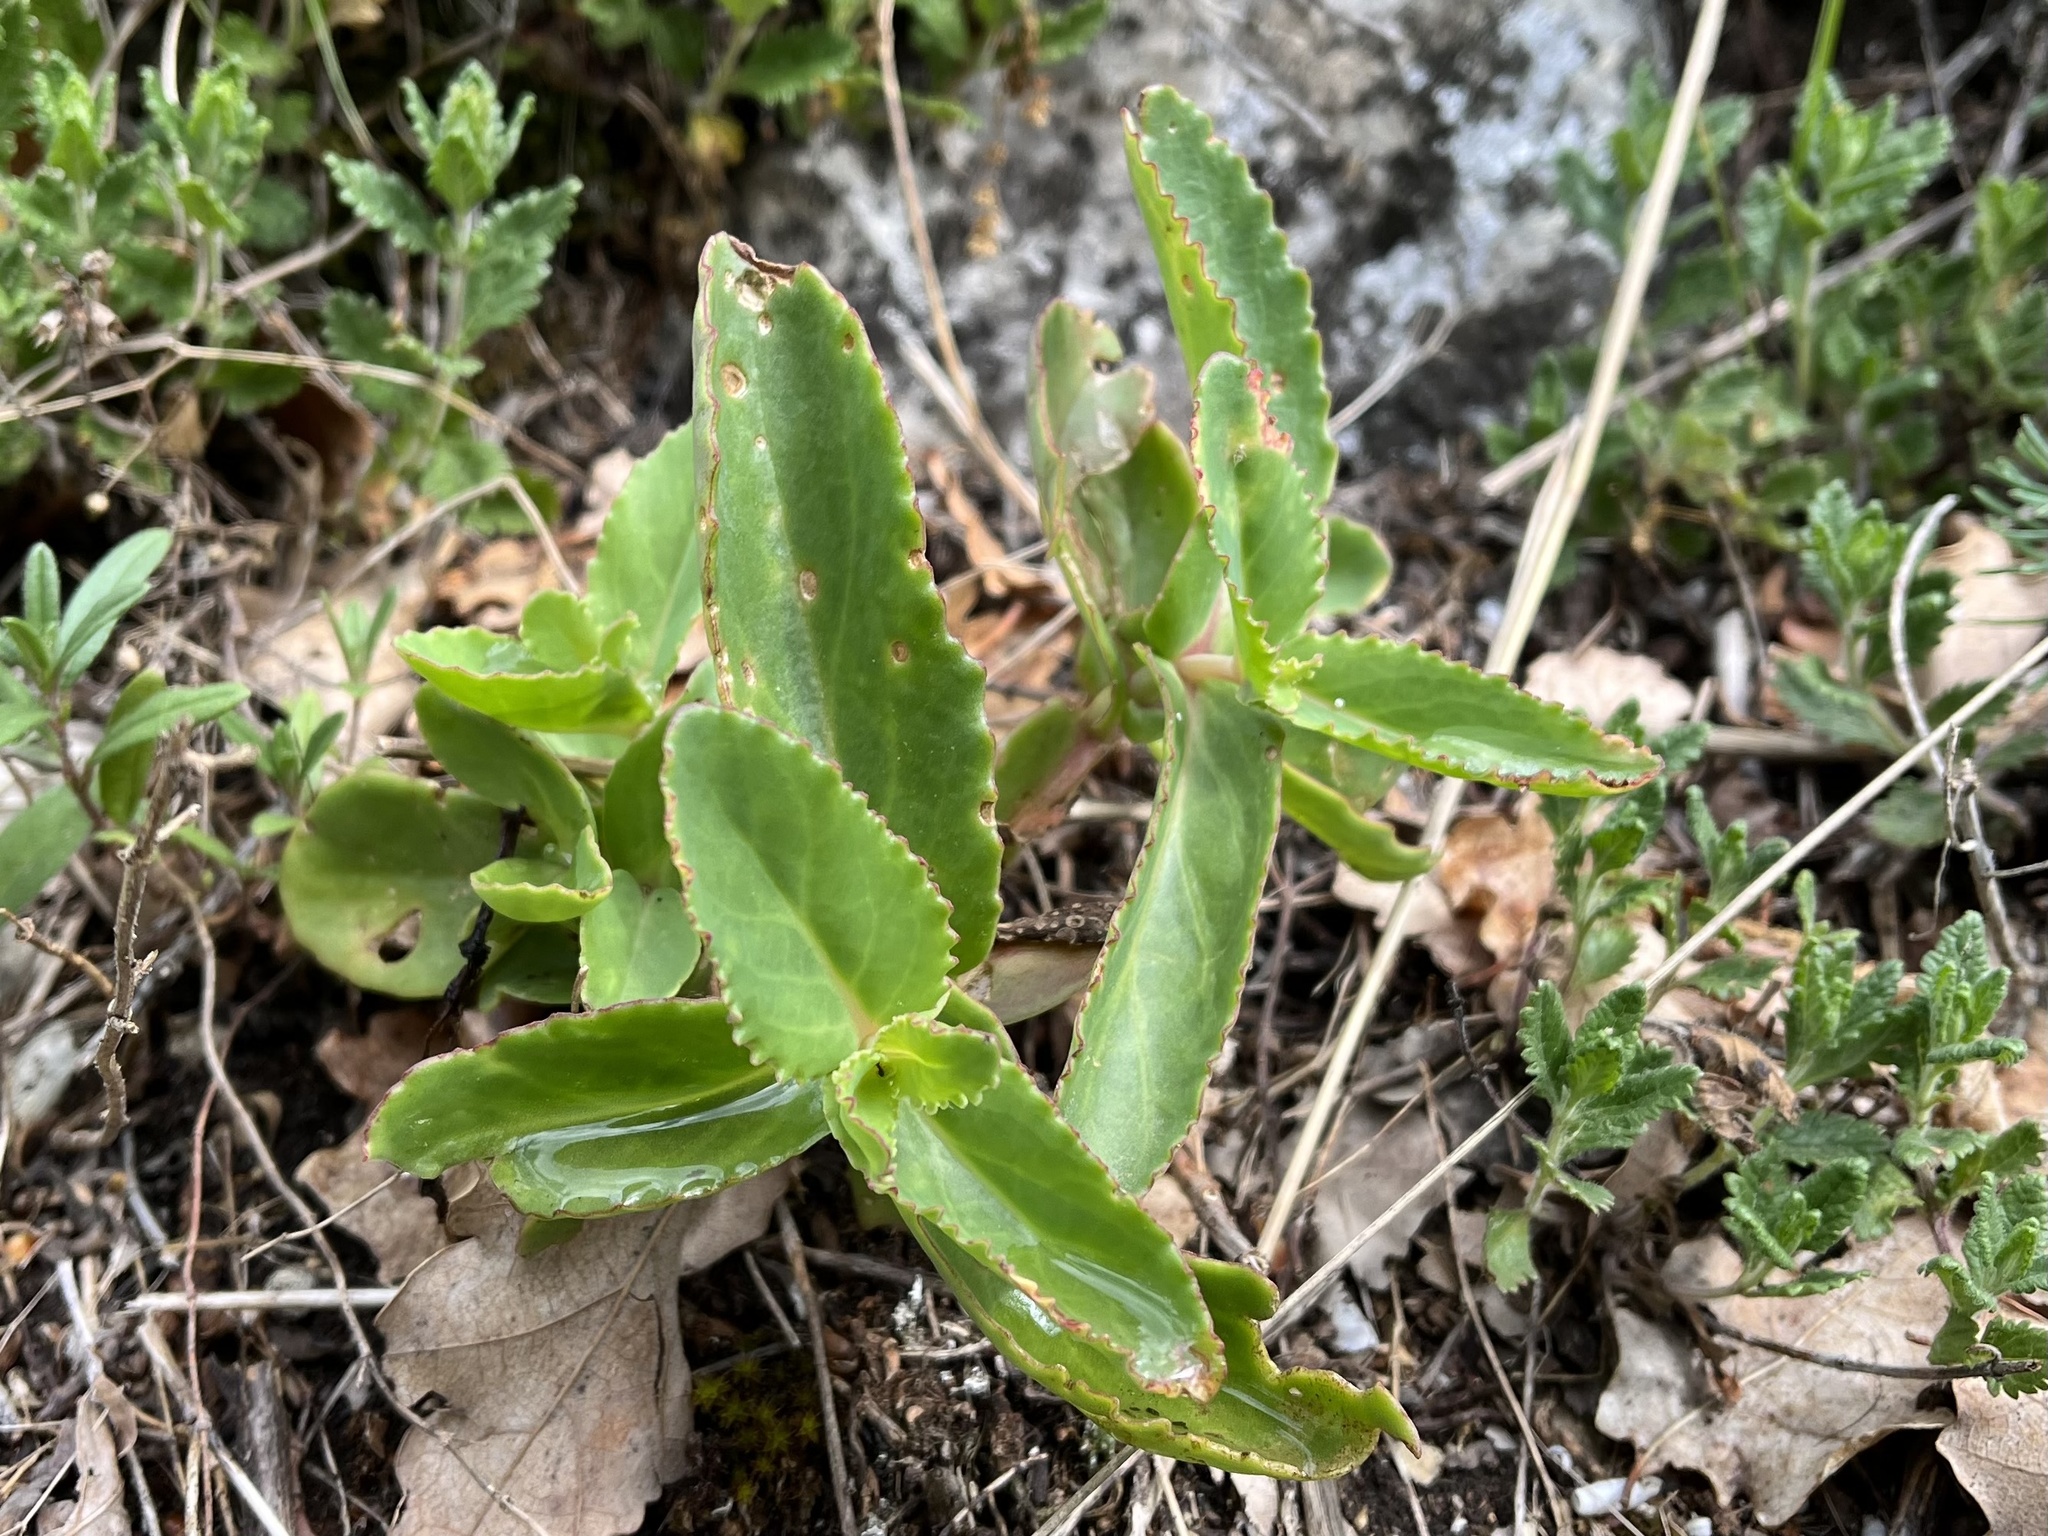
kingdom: Plantae
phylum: Tracheophyta
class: Magnoliopsida
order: Saxifragales
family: Crassulaceae
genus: Hylotelephium
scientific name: Hylotelephium maximum
